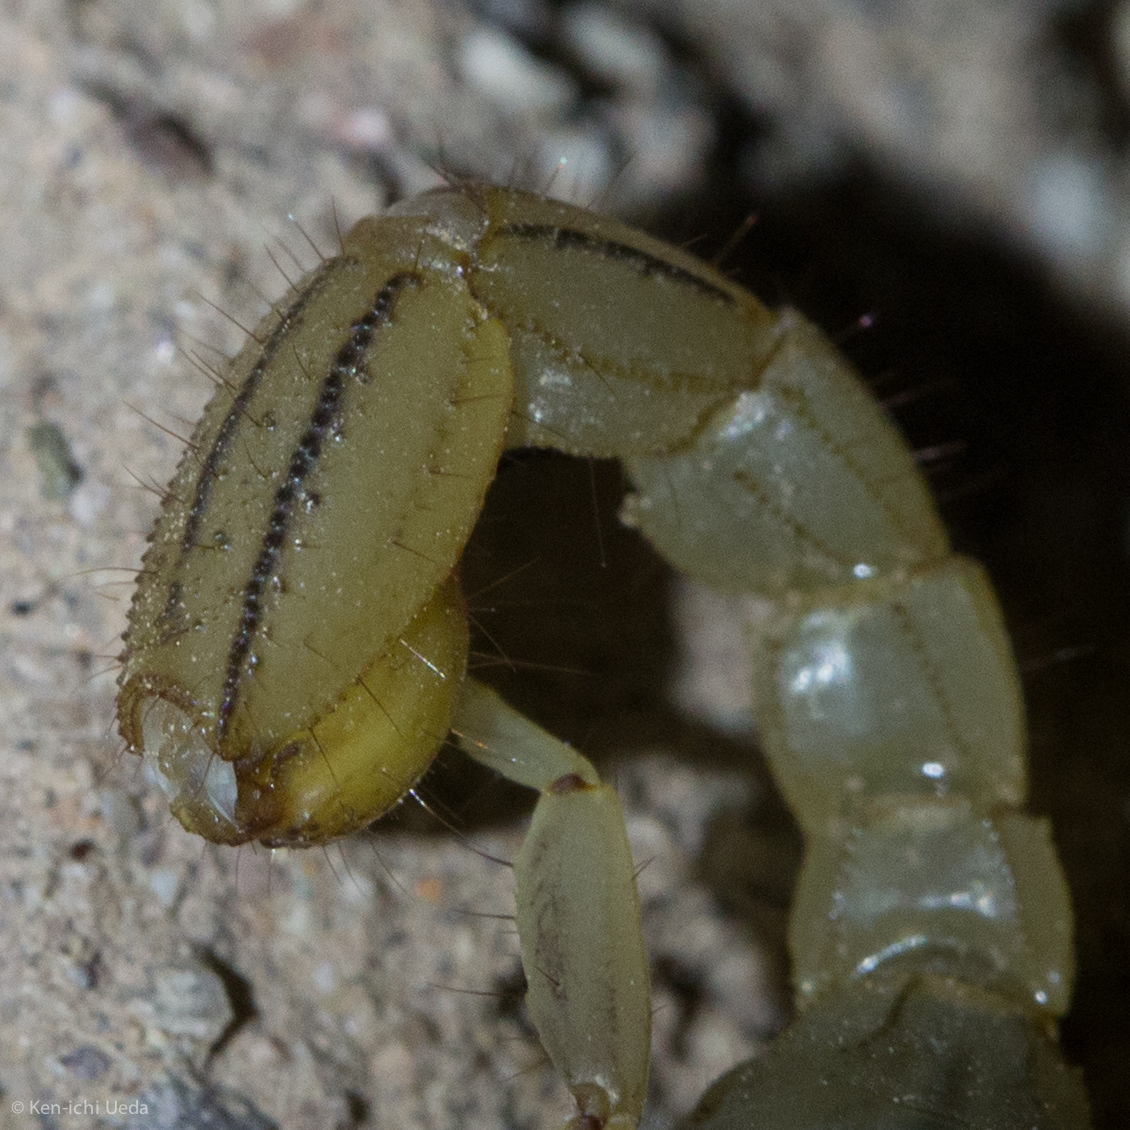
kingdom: Animalia
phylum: Arthropoda
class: Arachnida
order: Scorpiones
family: Vaejovidae
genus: Paravaejovis
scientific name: Paravaejovis spinigerus
